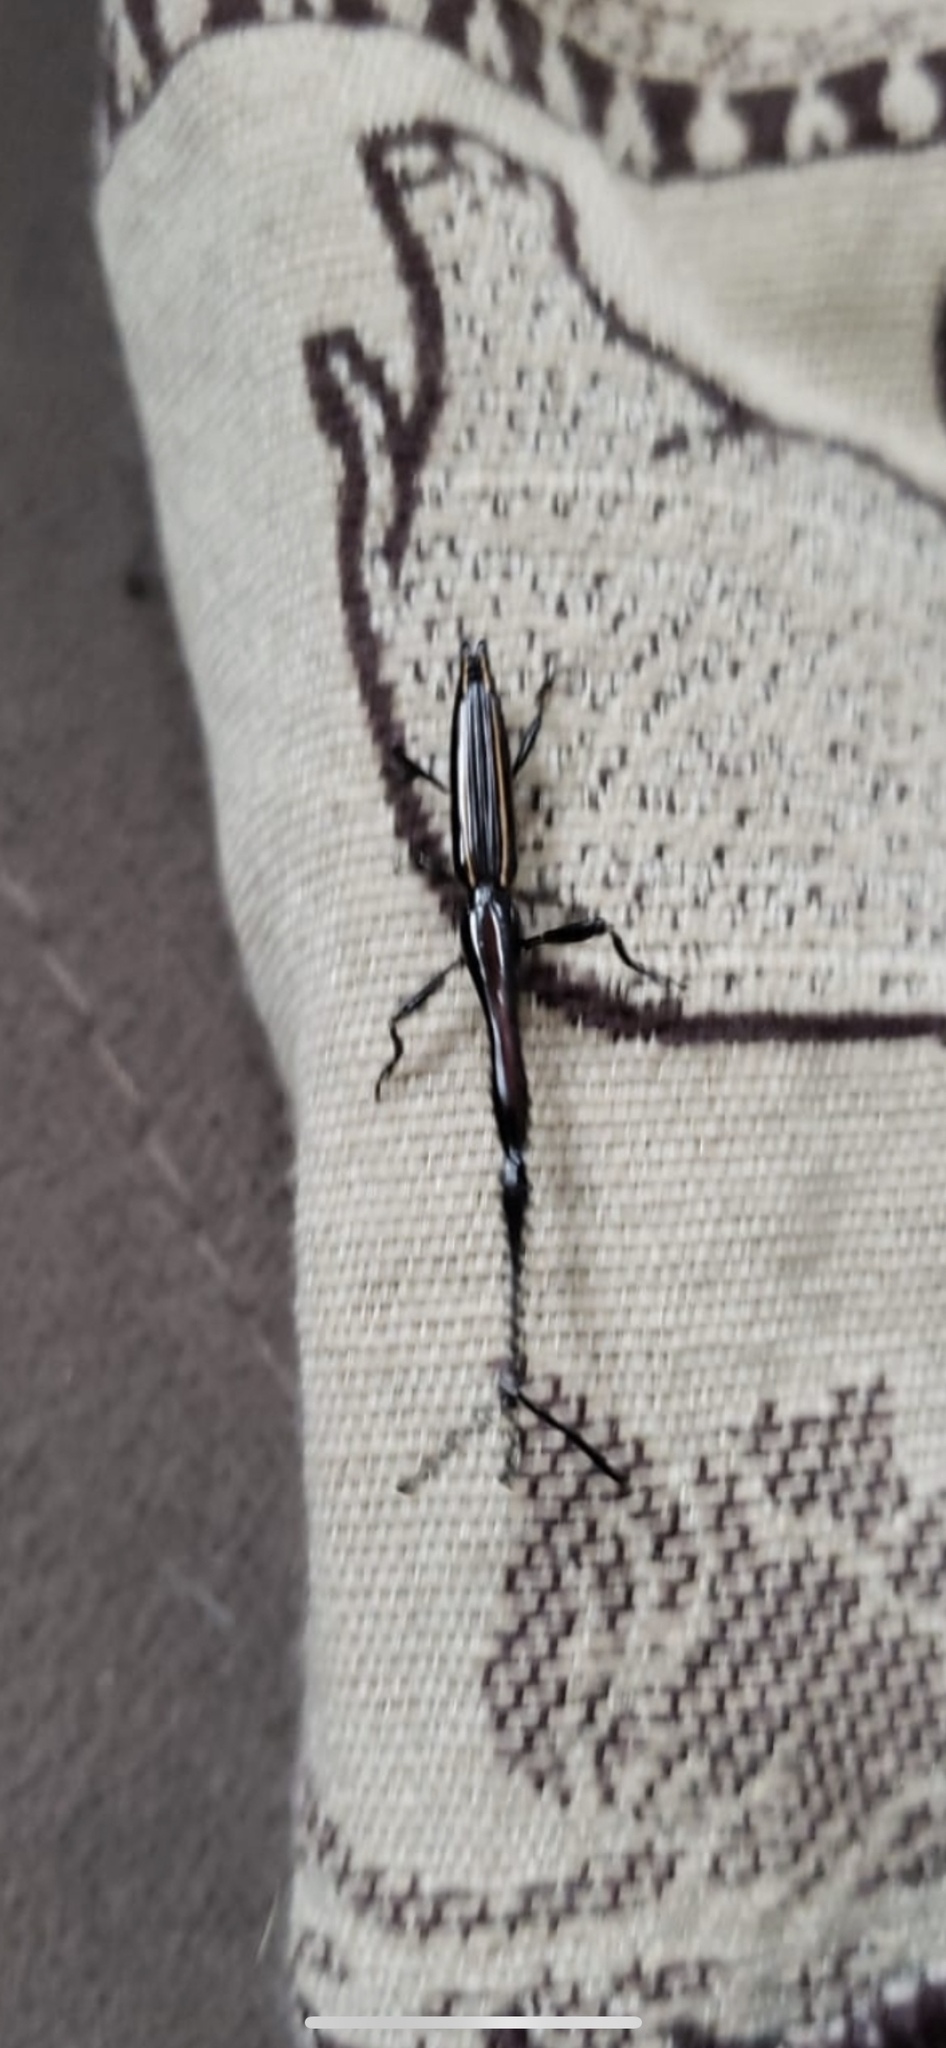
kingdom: Animalia
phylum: Arthropoda
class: Insecta
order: Coleoptera
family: Brentidae
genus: Brentus
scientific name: Brentus anchorago
